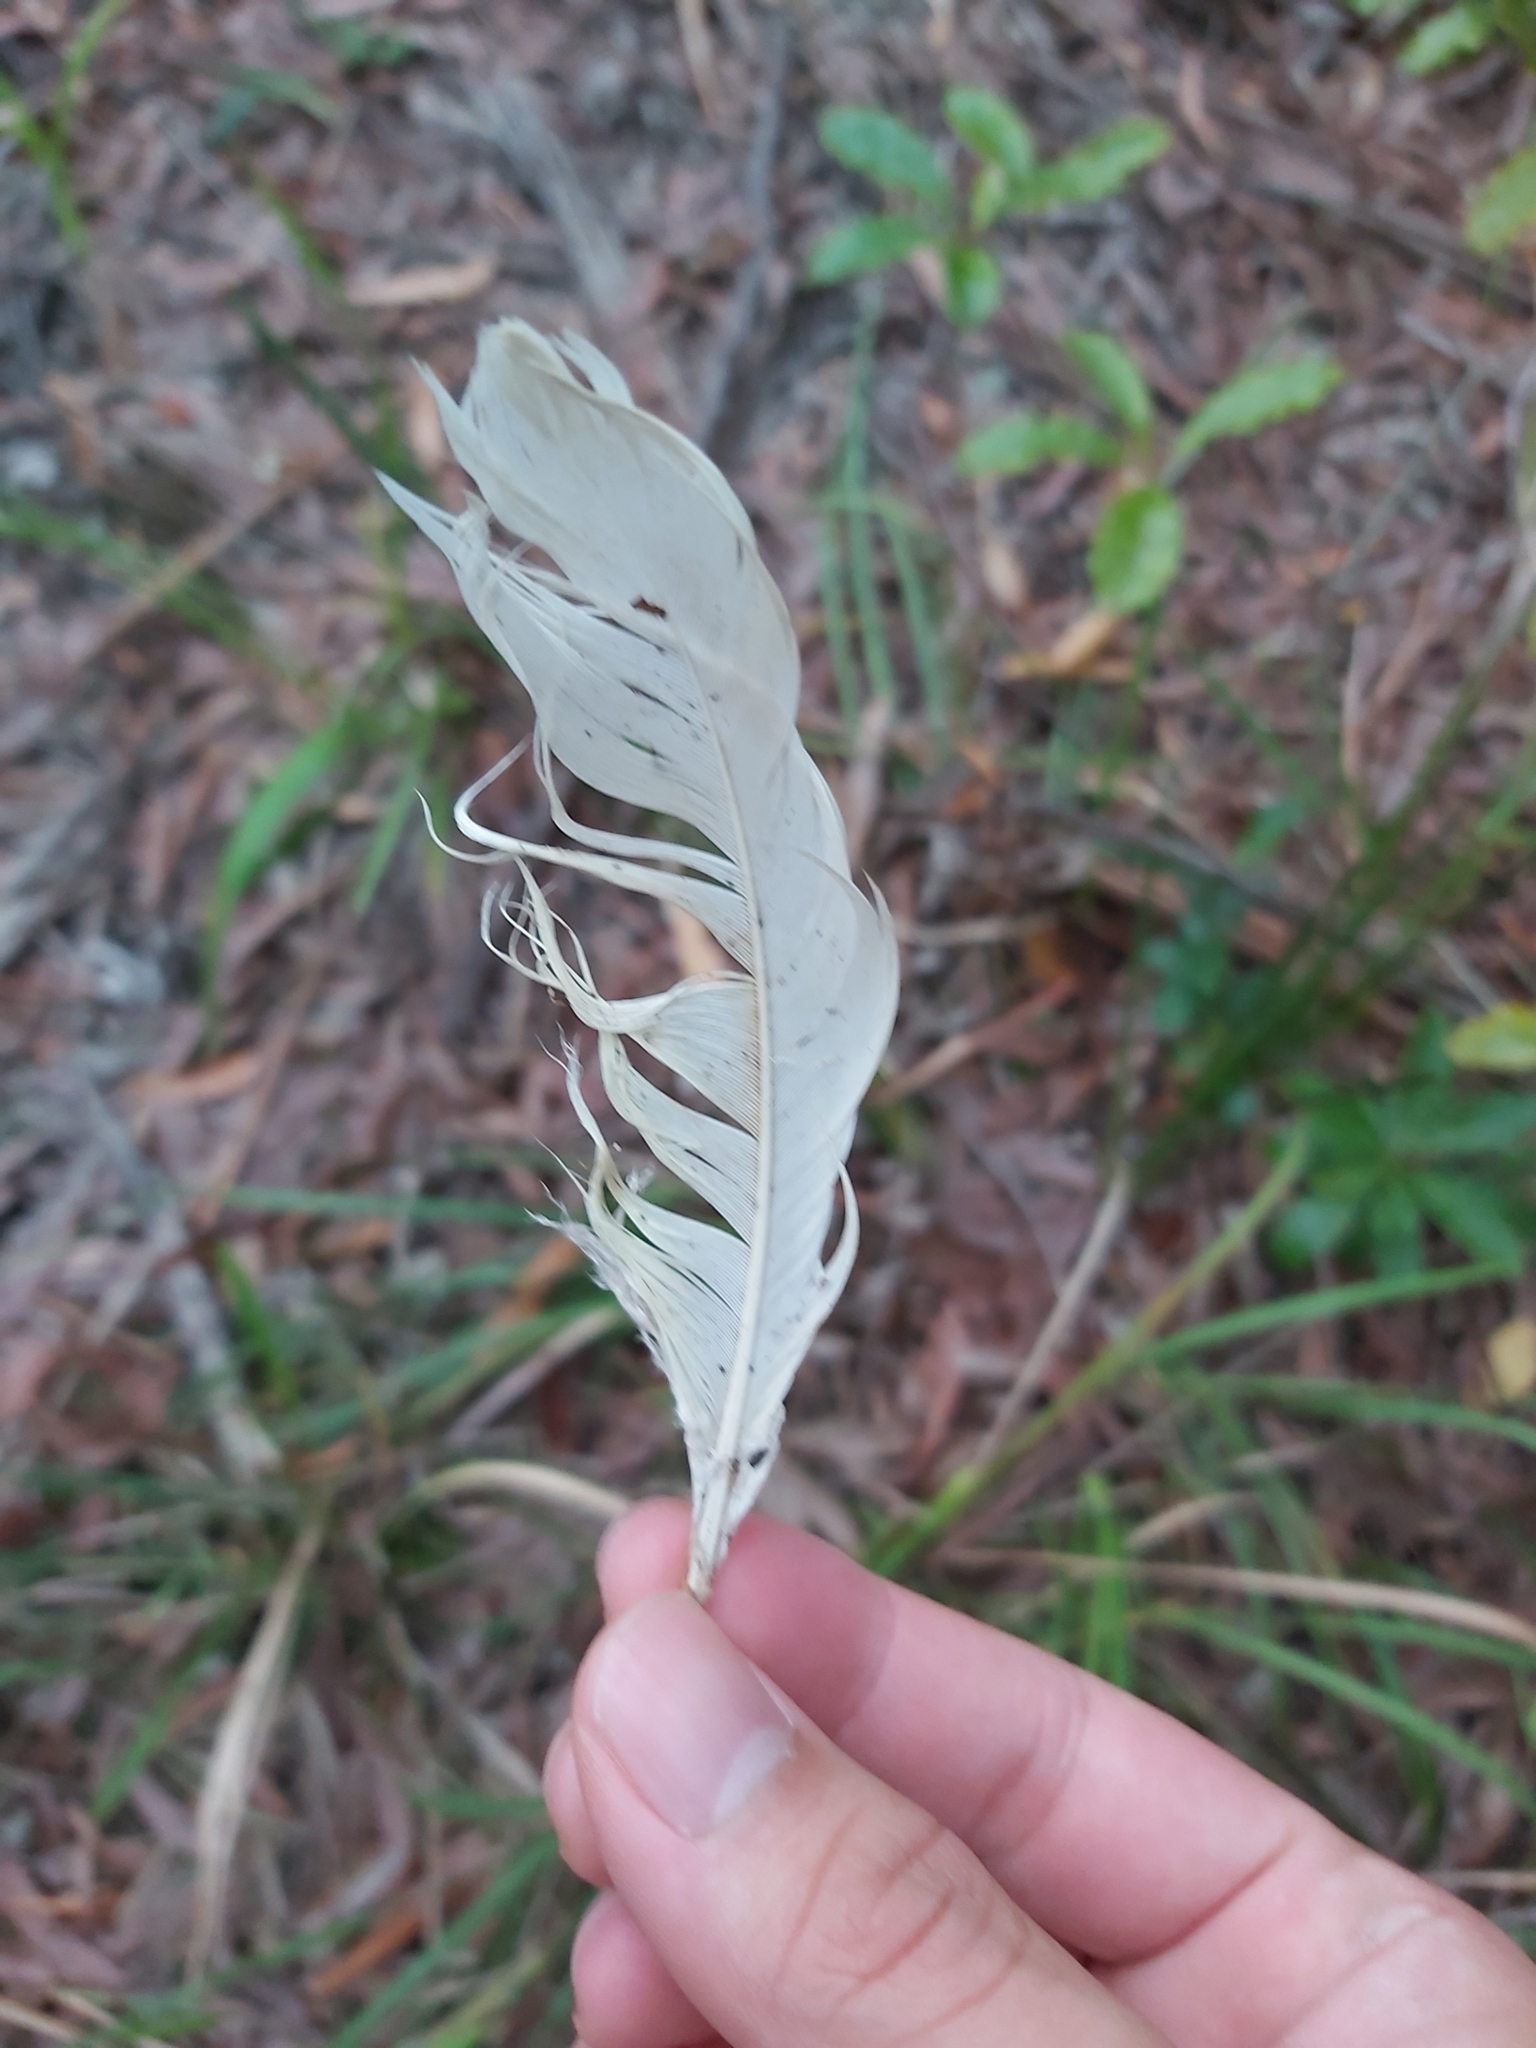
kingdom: Animalia
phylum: Chordata
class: Aves
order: Psittaciformes
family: Psittacidae
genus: Cacatua
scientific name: Cacatua galerita
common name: Sulphur-crested cockatoo
